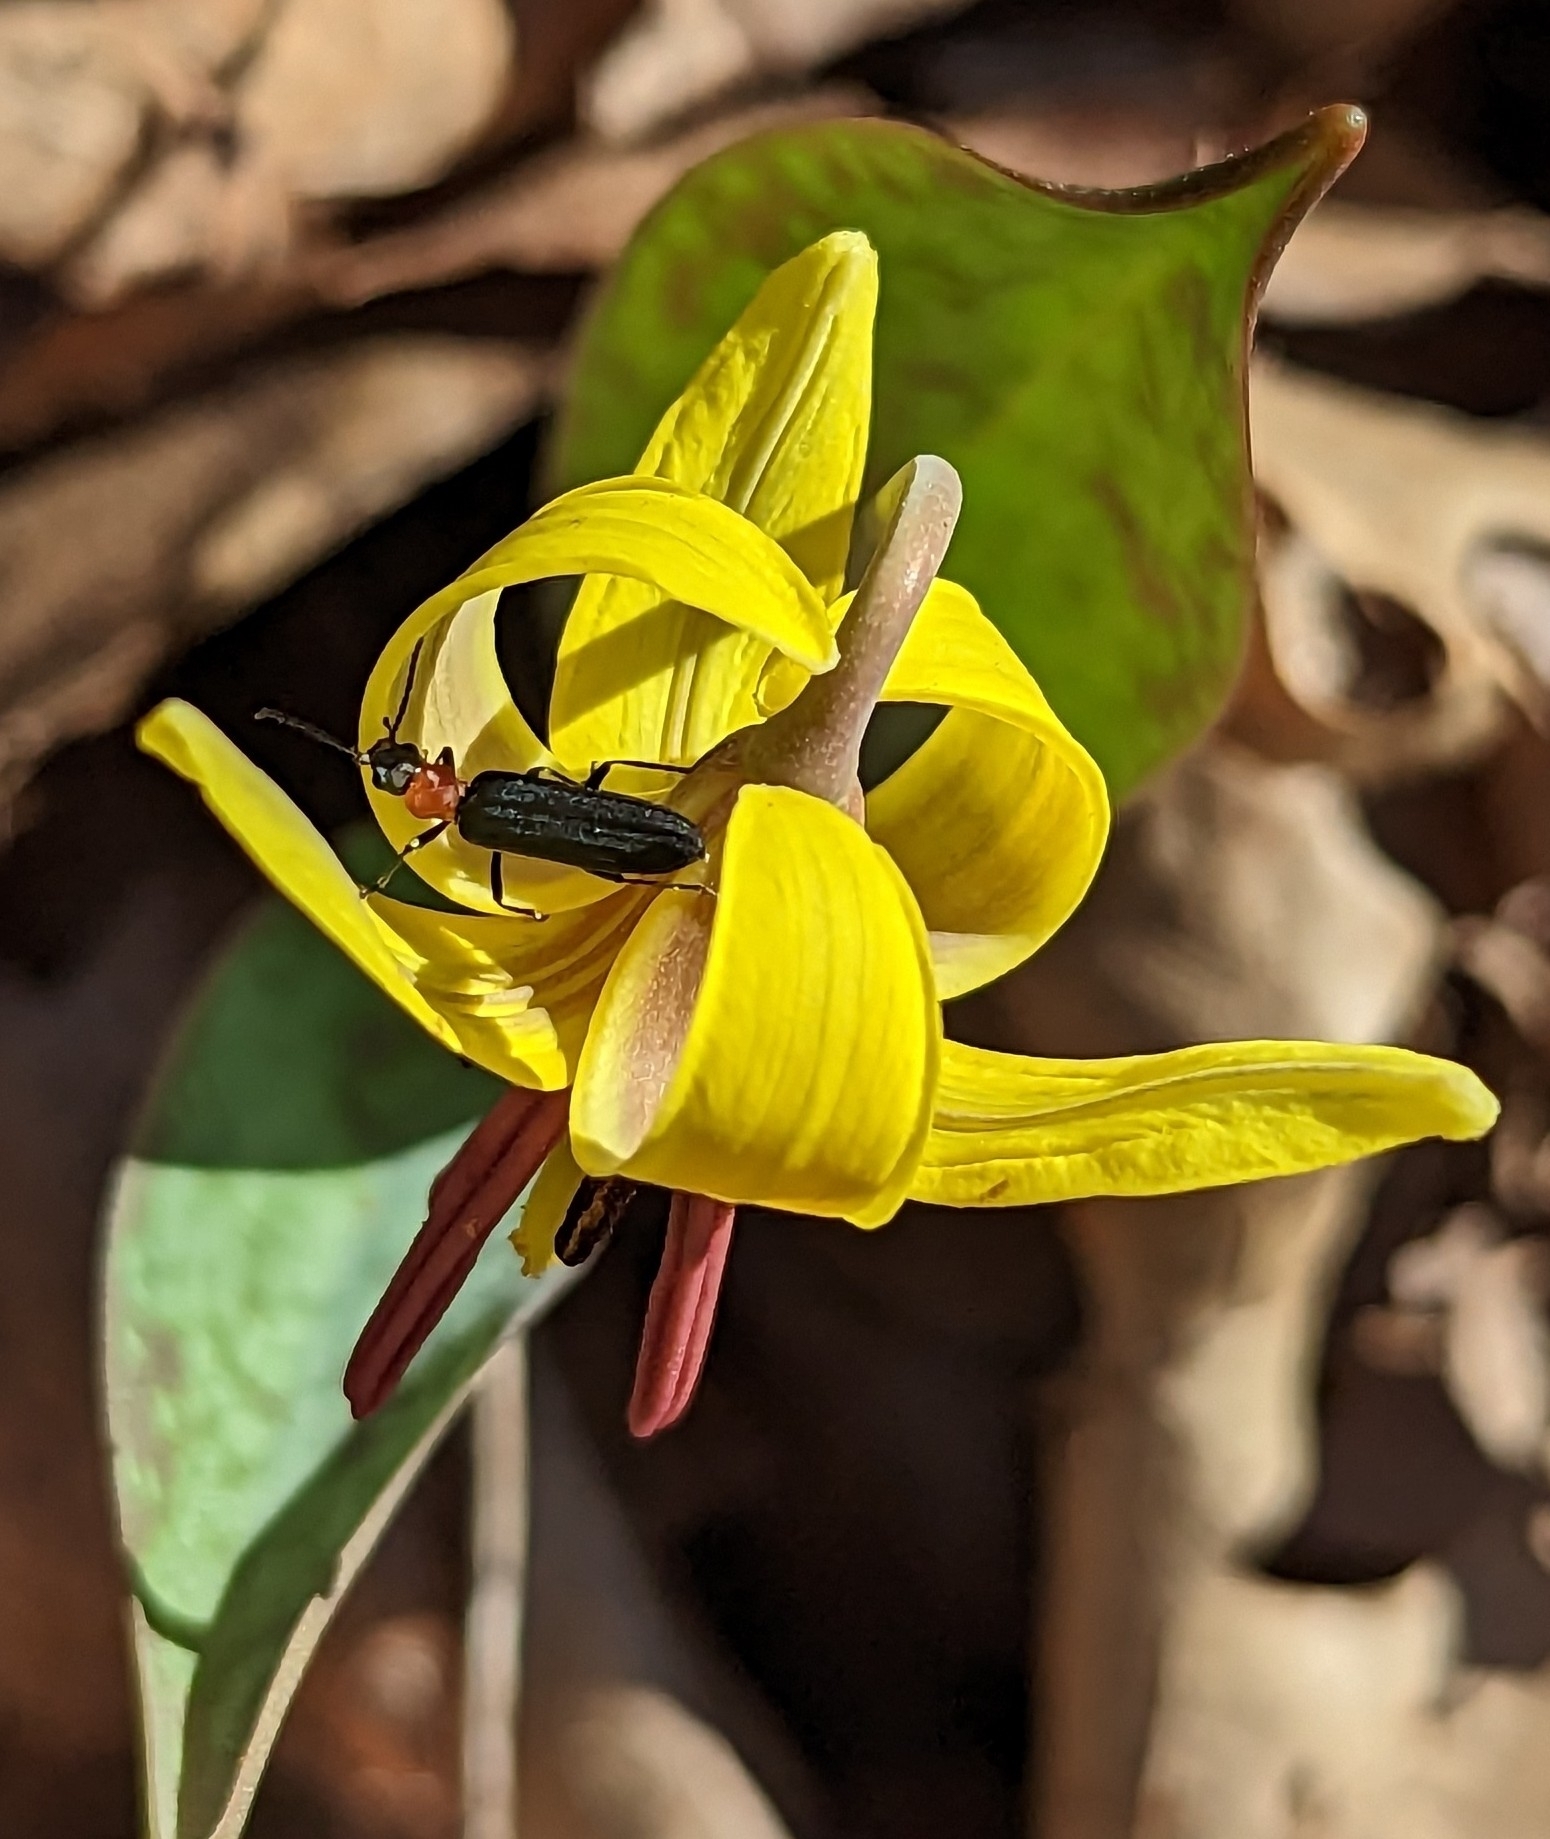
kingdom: Animalia
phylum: Arthropoda
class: Insecta
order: Coleoptera
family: Oedemeridae
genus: Ischnomera
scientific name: Ischnomera
